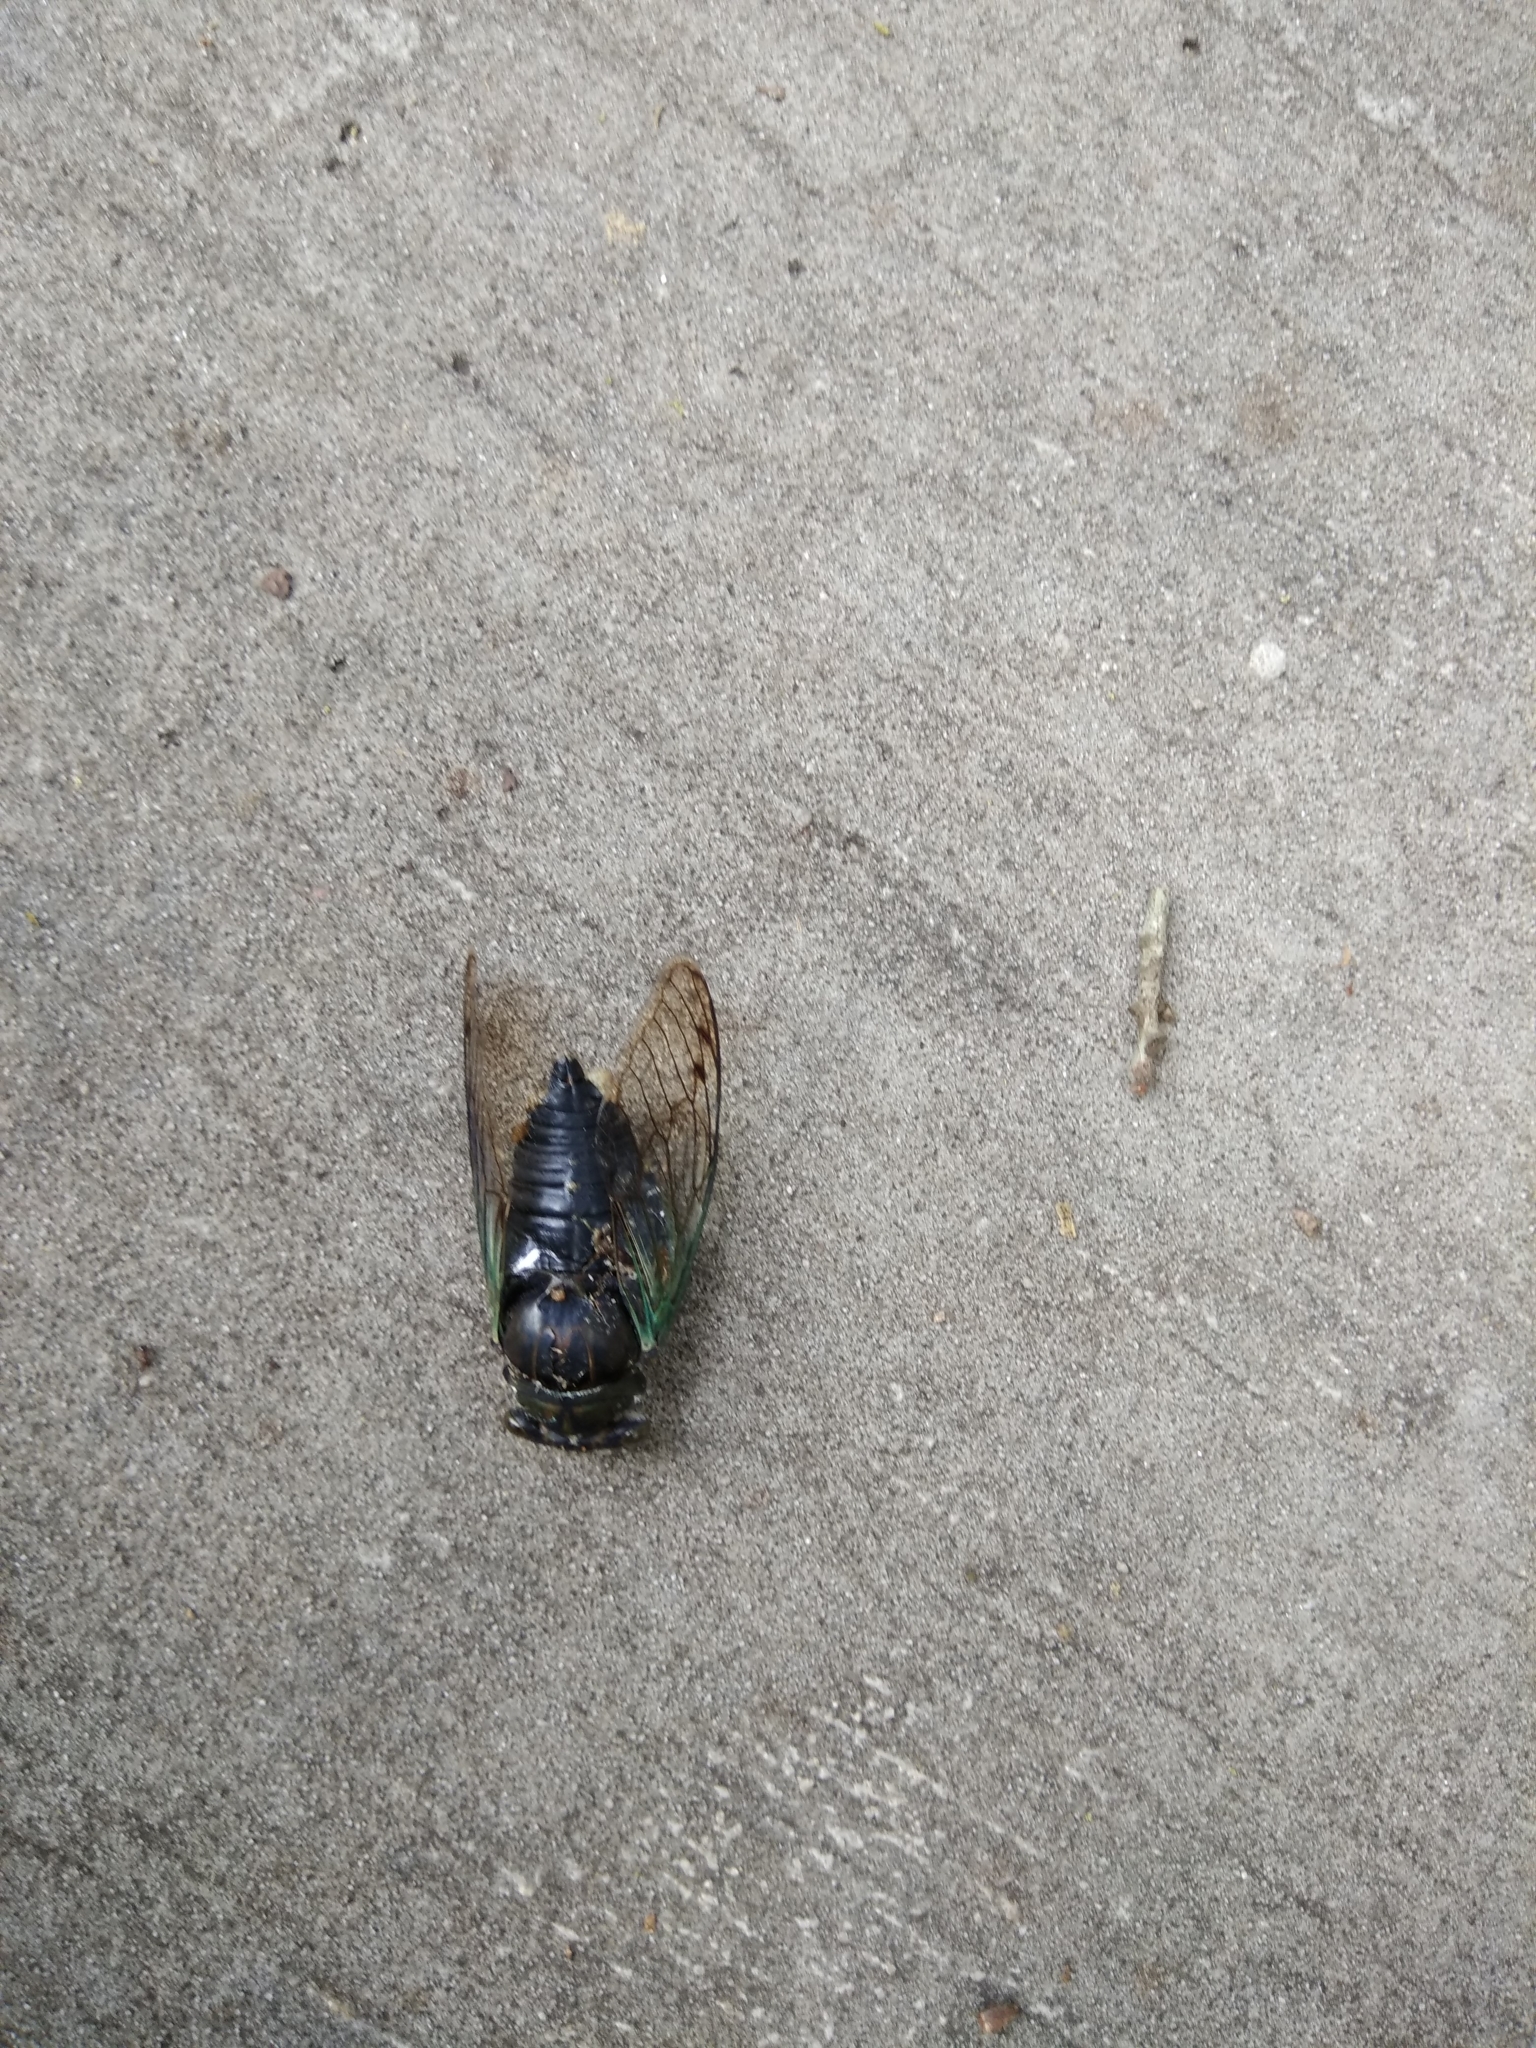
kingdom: Animalia
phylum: Arthropoda
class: Insecta
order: Hemiptera
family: Cicadidae
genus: Neotibicen
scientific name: Neotibicen tibicen
